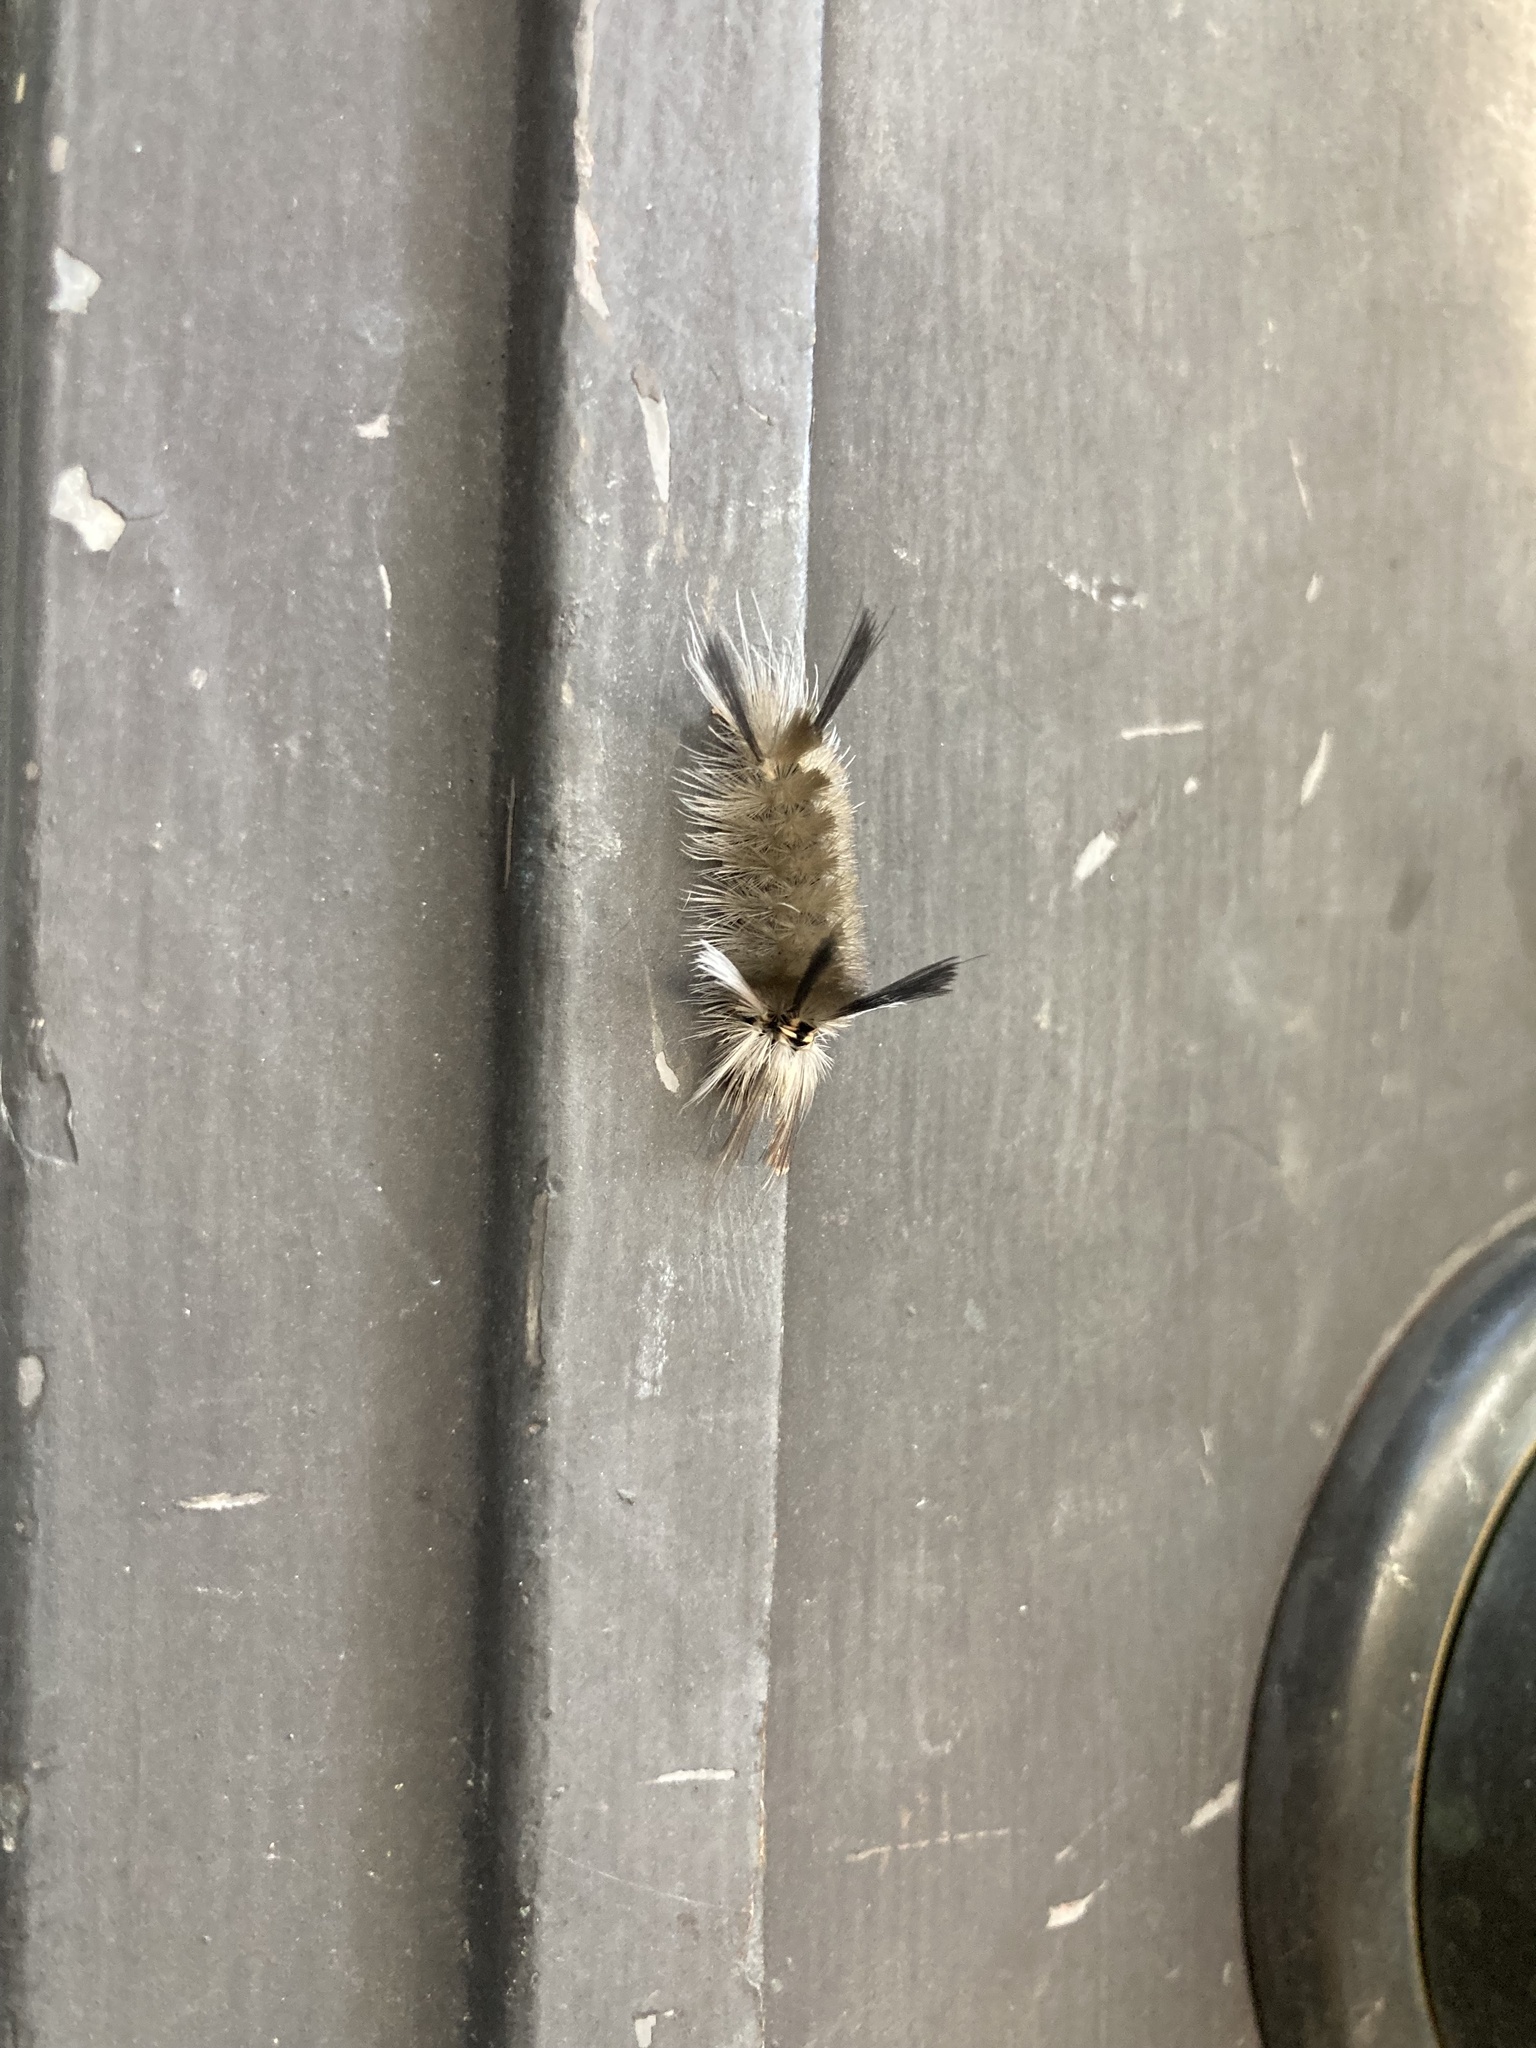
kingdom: Animalia
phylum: Arthropoda
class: Insecta
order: Lepidoptera
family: Erebidae
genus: Halysidota
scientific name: Halysidota tessellaris
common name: Banded tussock moth
